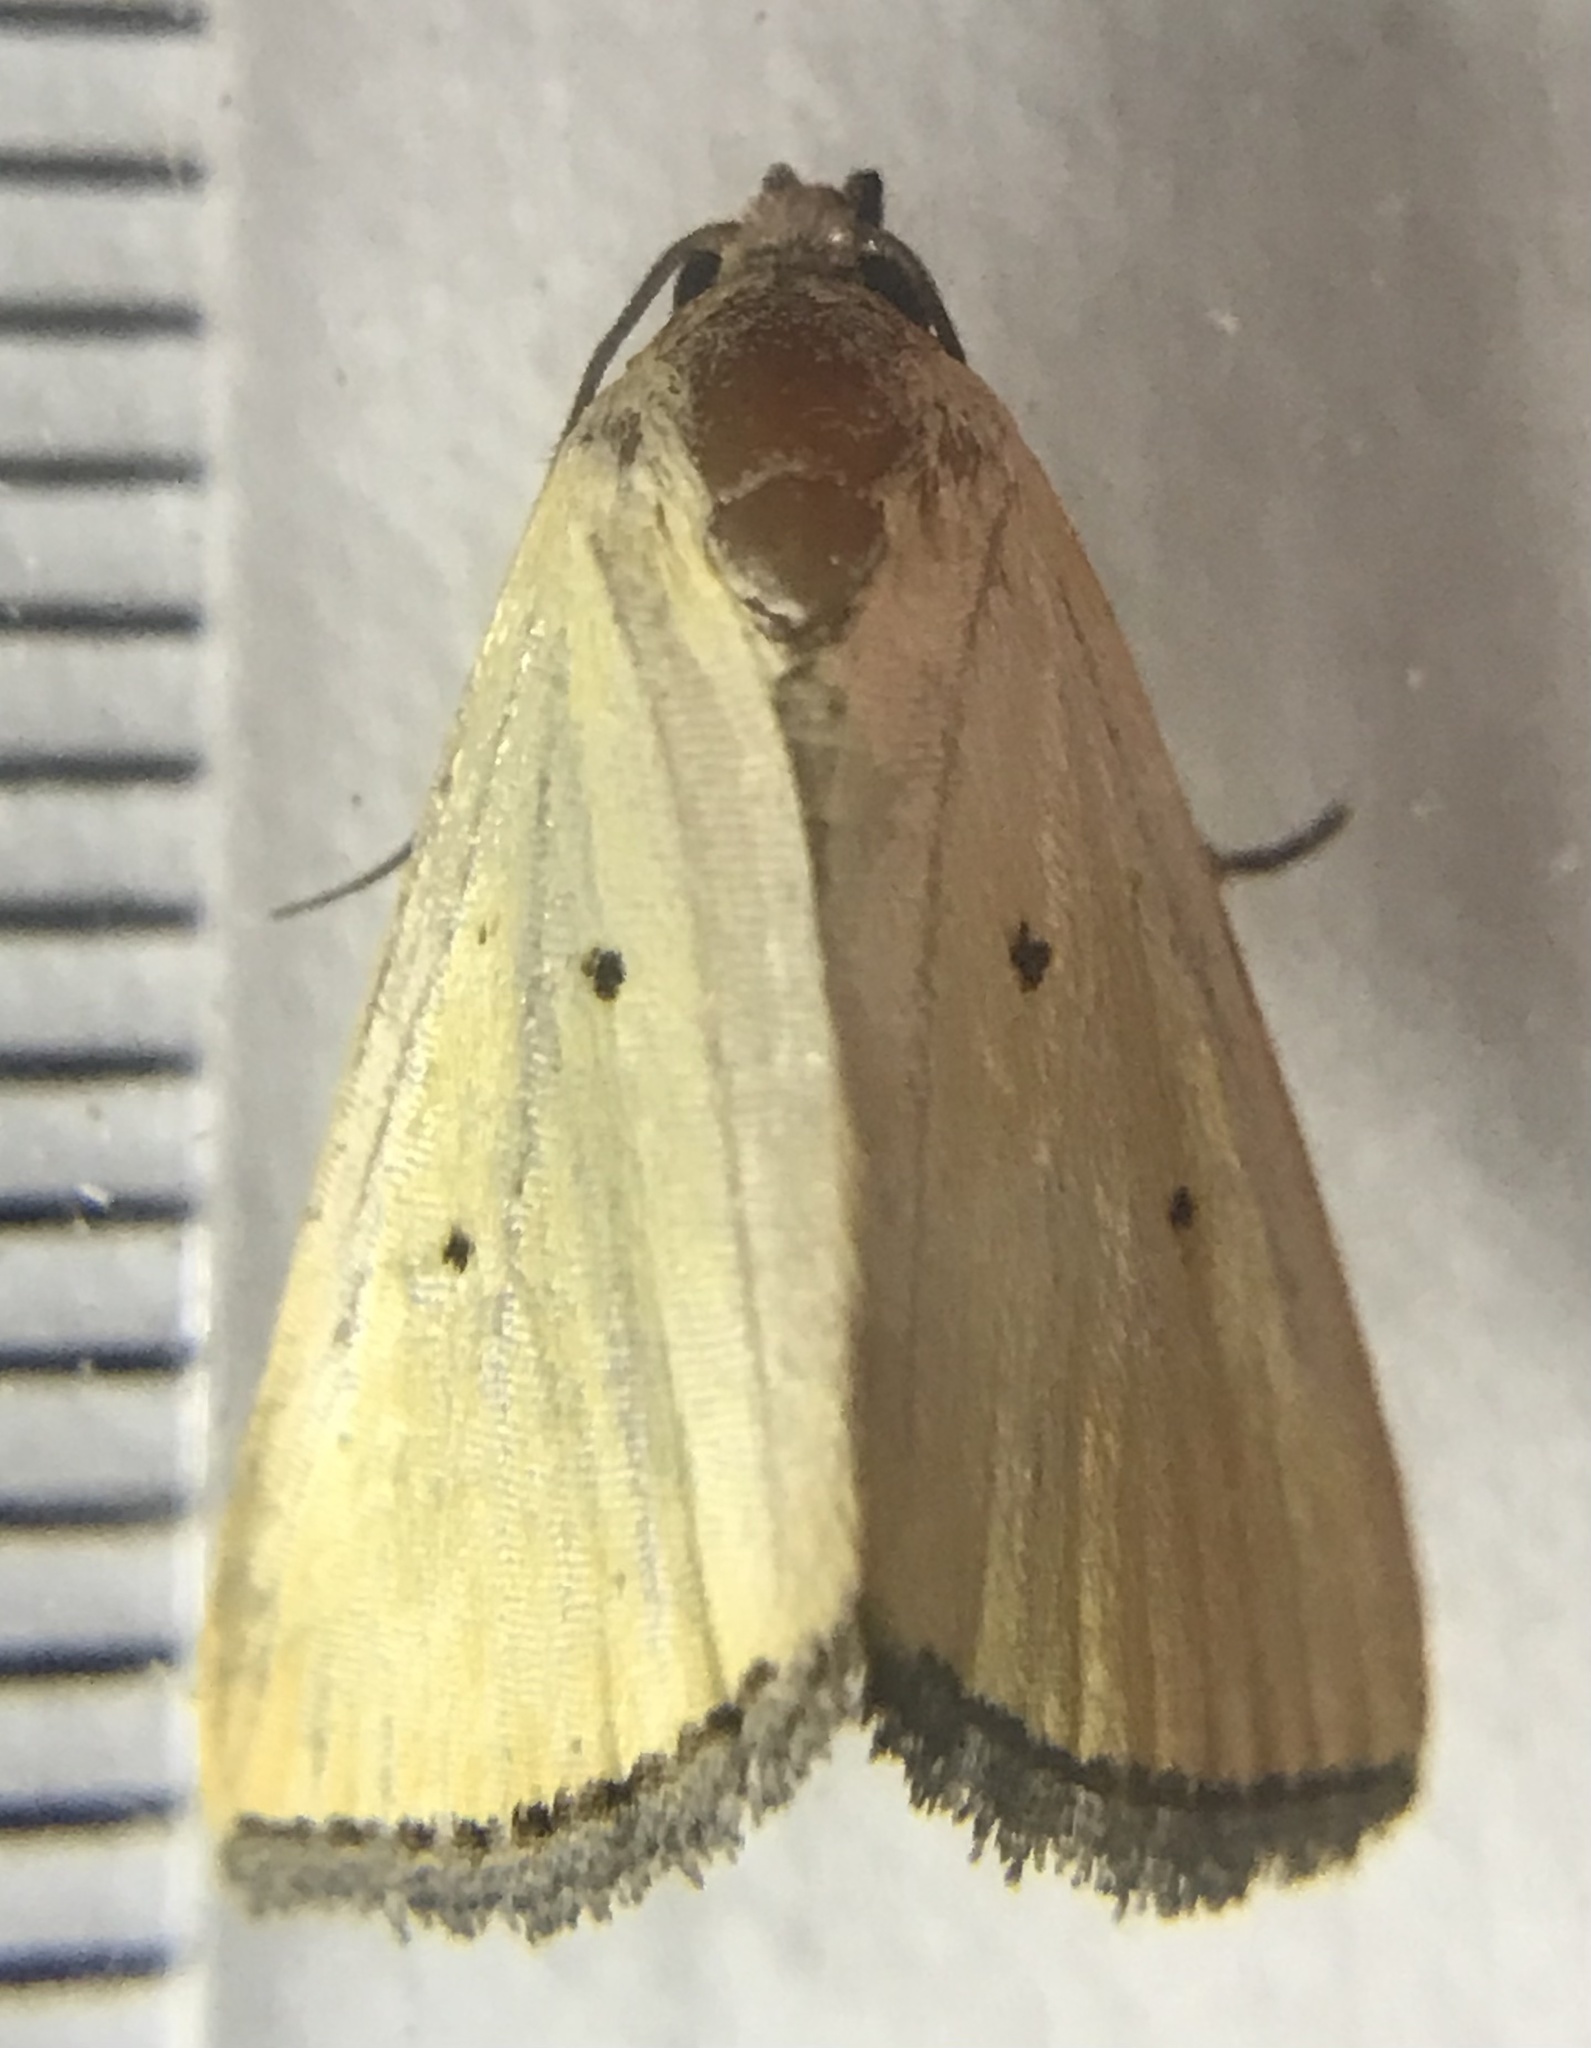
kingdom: Animalia
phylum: Arthropoda
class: Insecta
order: Lepidoptera
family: Noctuidae
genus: Marimatha
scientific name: Marimatha nigrofimbria
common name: Black-bordered lemon moth
